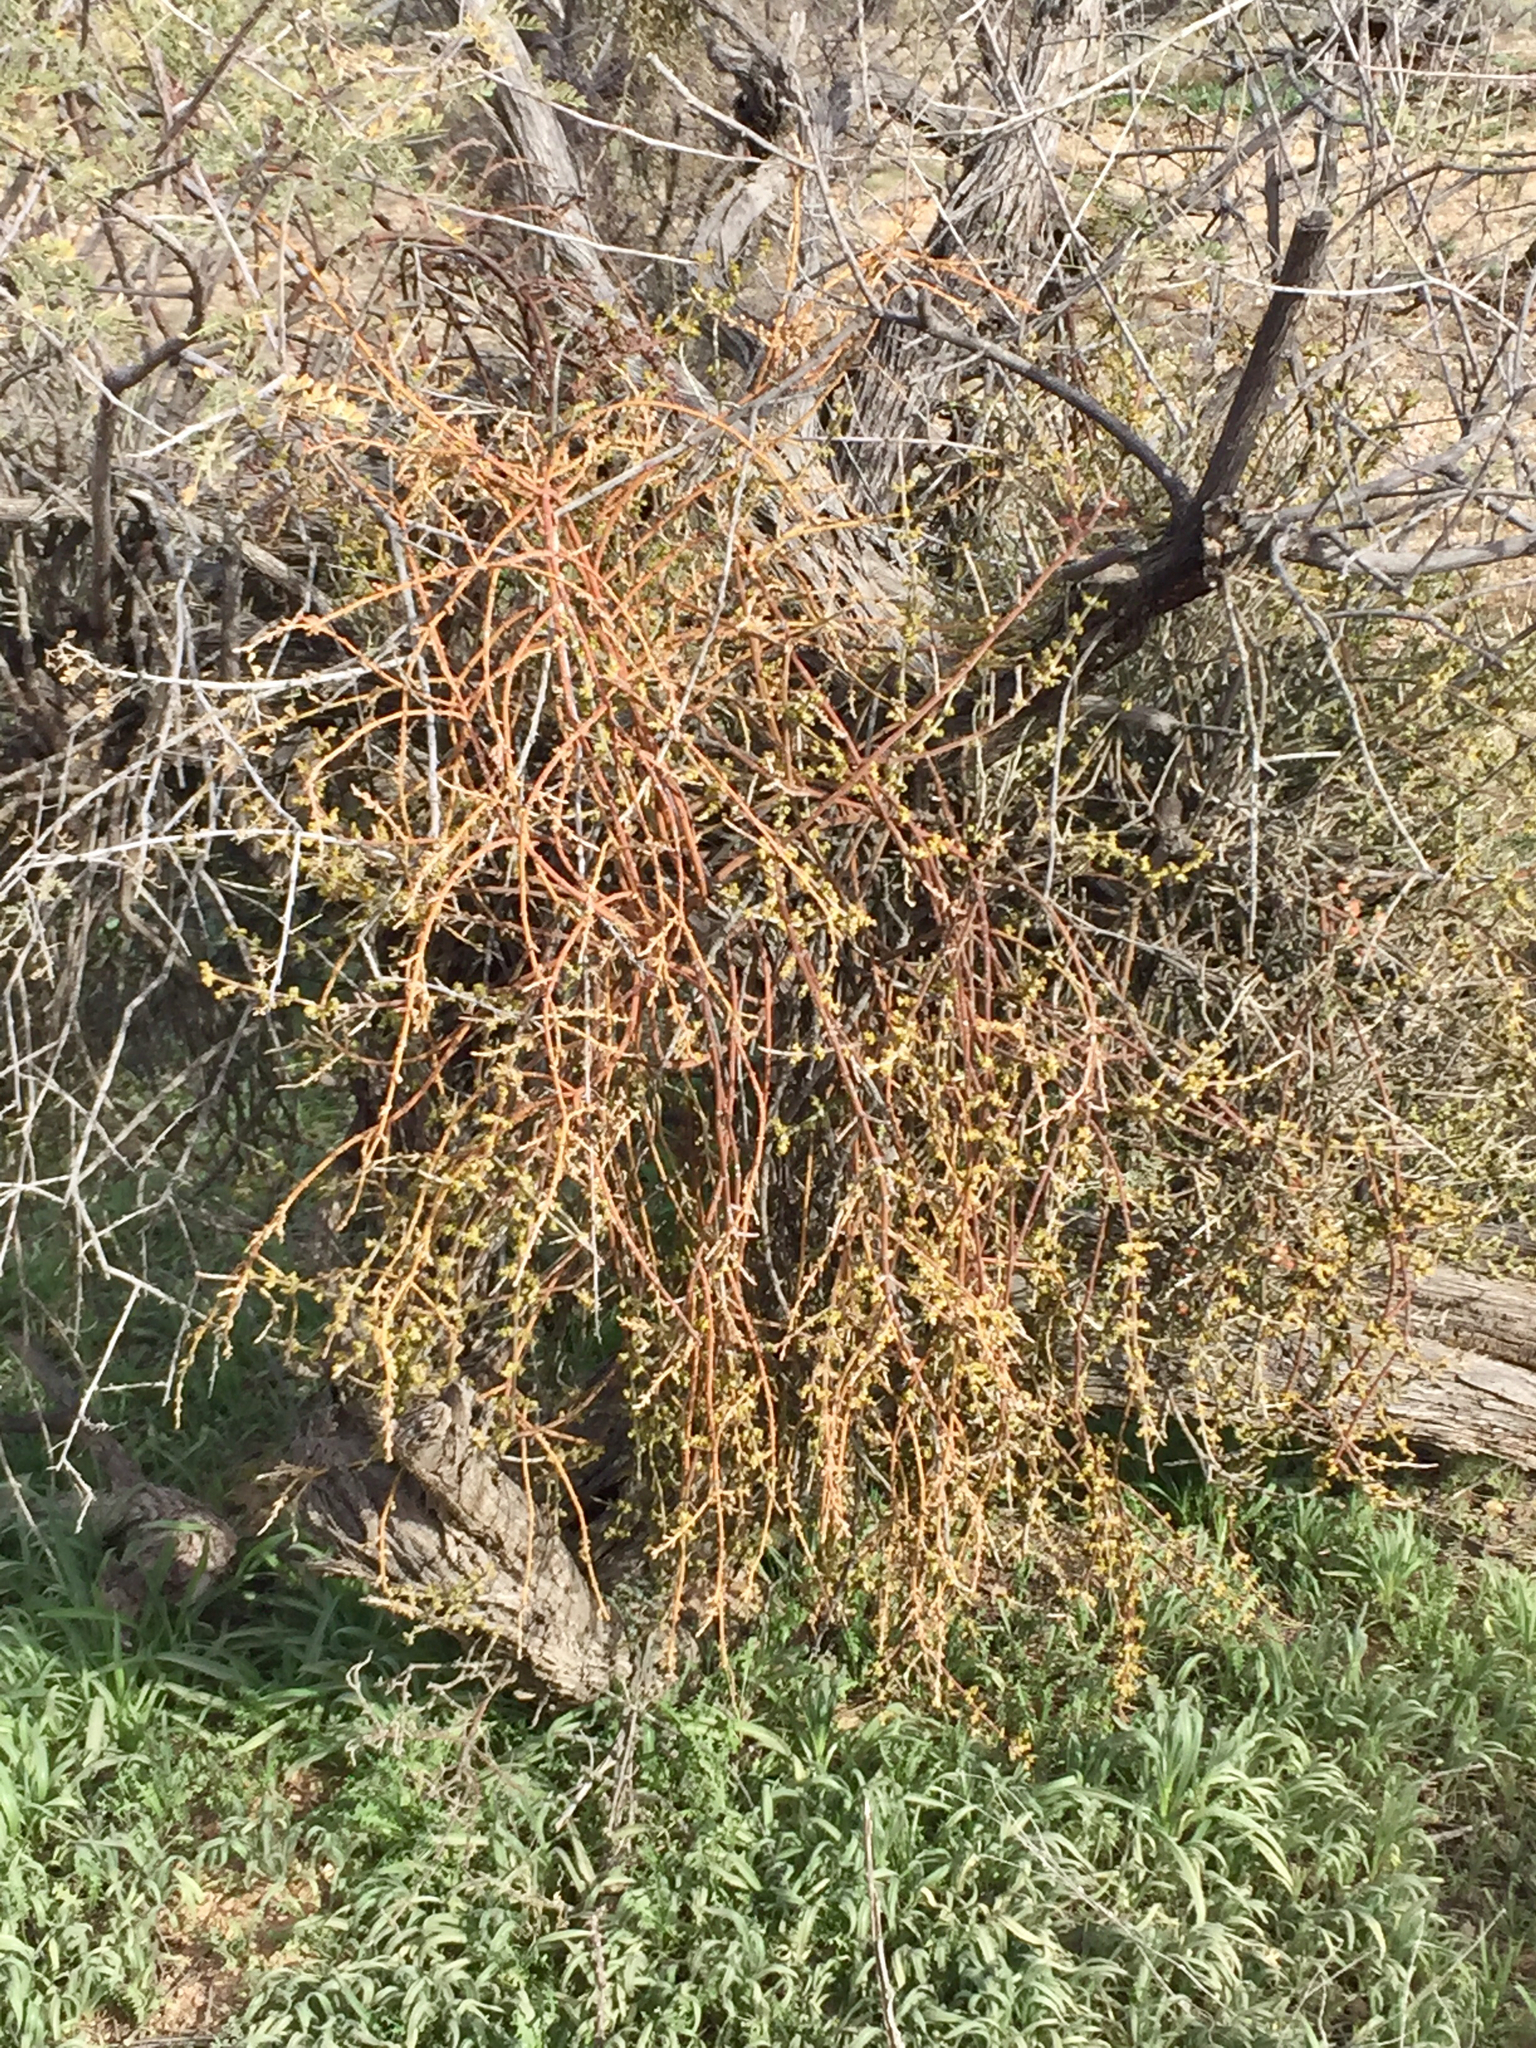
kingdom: Plantae
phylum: Tracheophyta
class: Magnoliopsida
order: Santalales
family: Viscaceae
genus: Phoradendron
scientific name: Phoradendron californicum
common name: Acacia mistletoe
